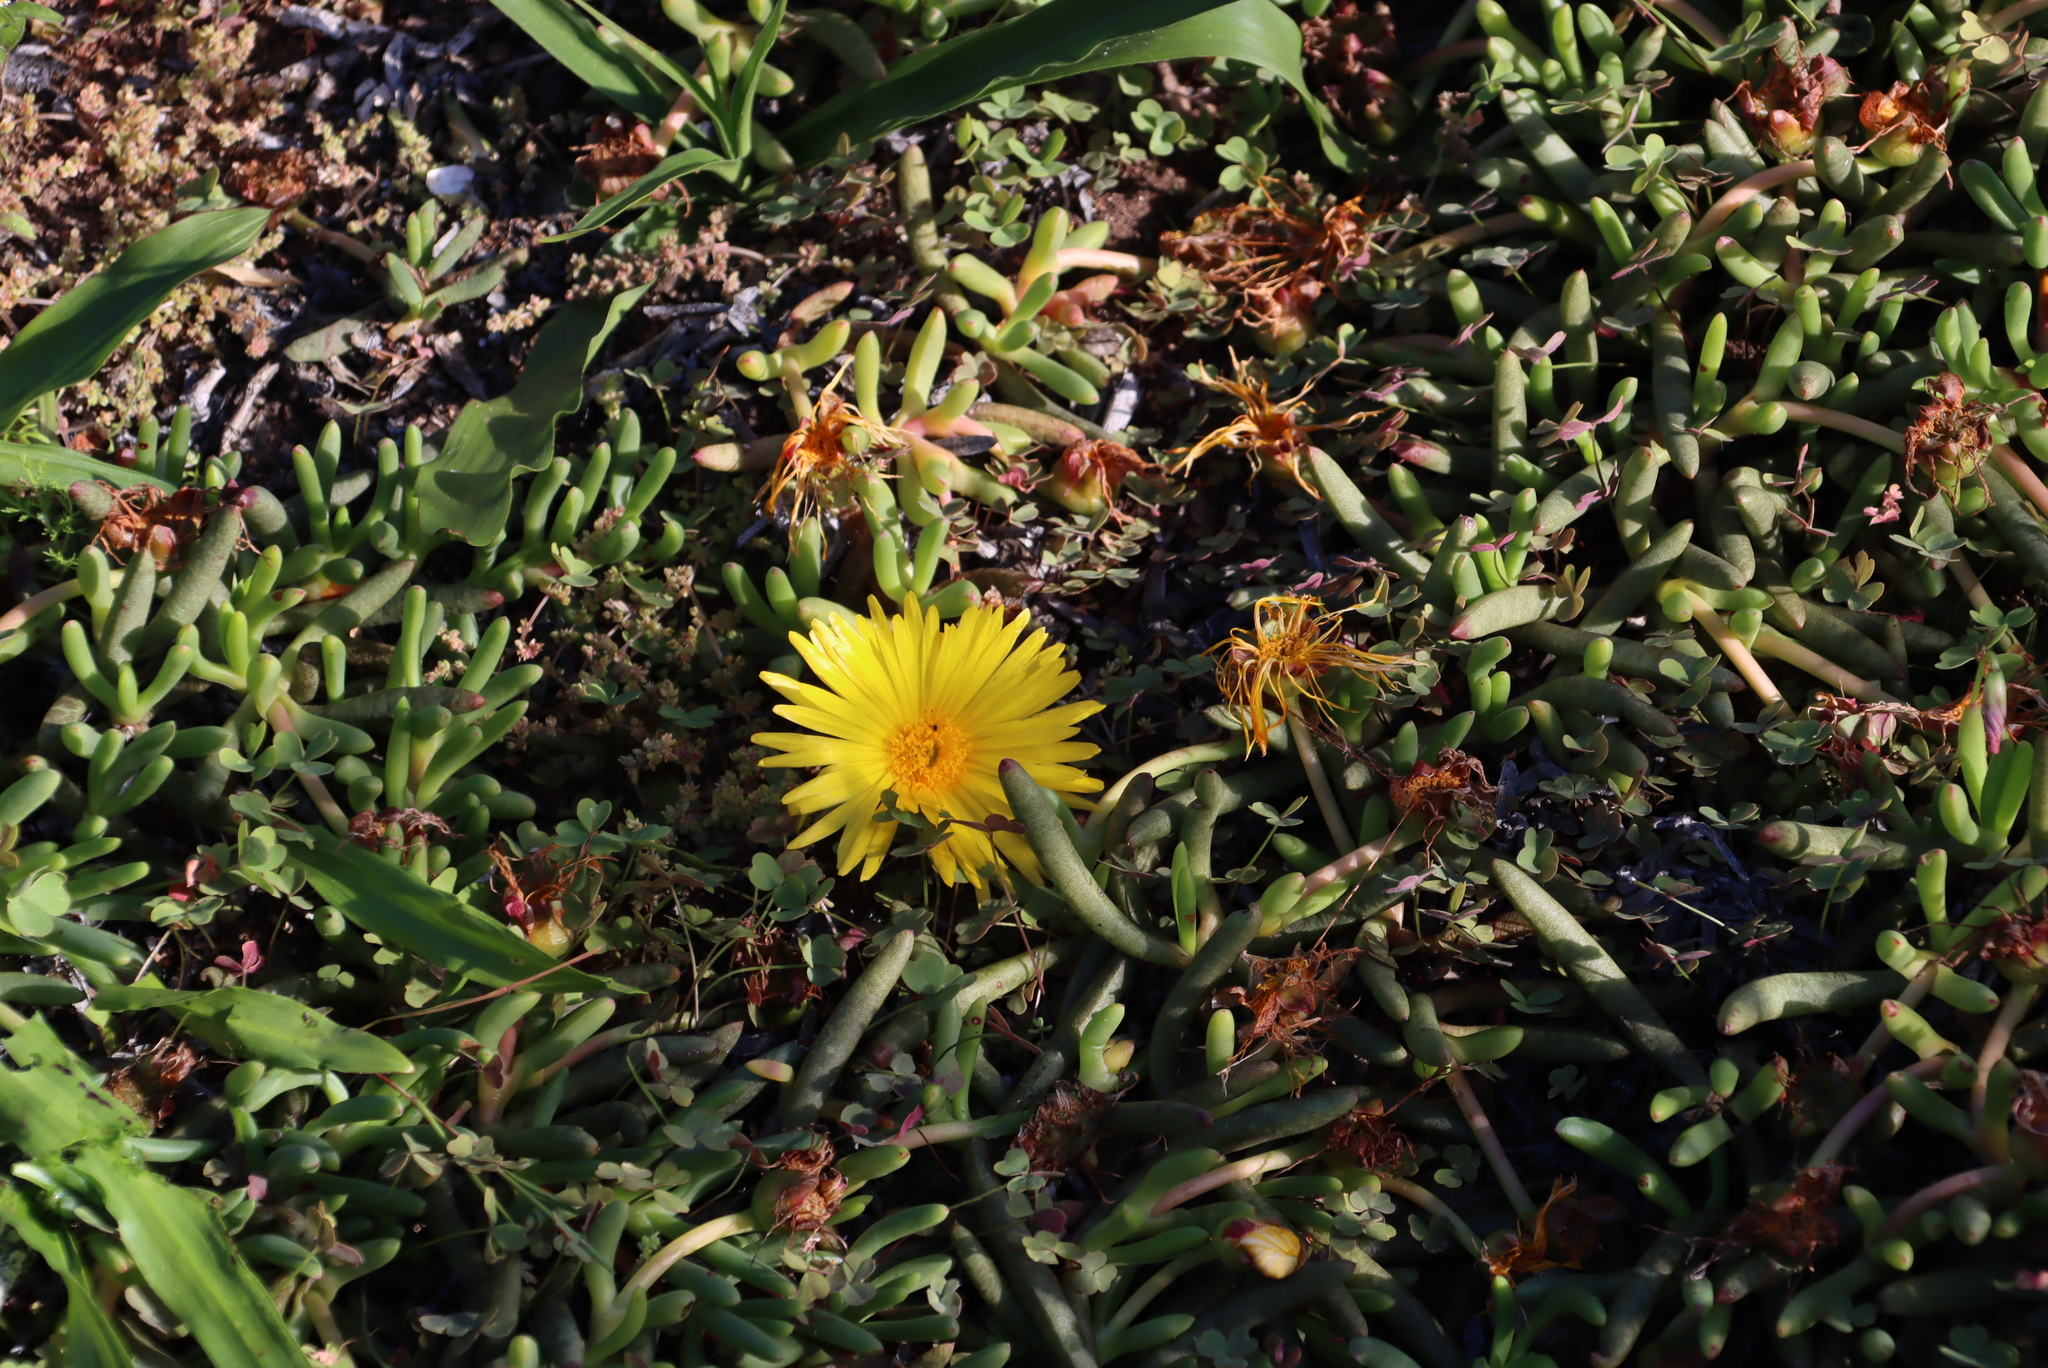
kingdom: Plantae
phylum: Tracheophyta
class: Magnoliopsida
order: Caryophyllales
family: Aizoaceae
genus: Jordaaniella
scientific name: Jordaaniella dubia
